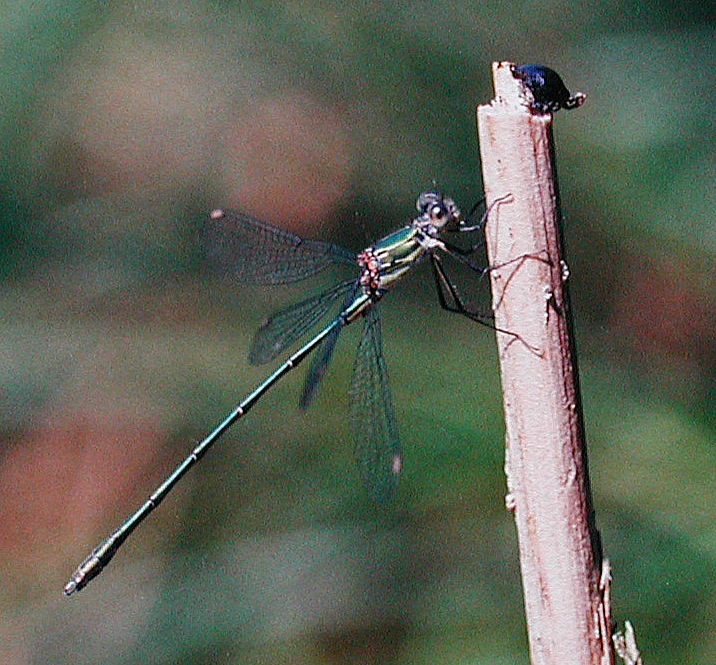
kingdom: Animalia
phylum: Arthropoda
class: Insecta
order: Odonata
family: Lestidae
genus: Chalcolestes
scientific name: Chalcolestes viridis
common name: Green emerald damselfly
